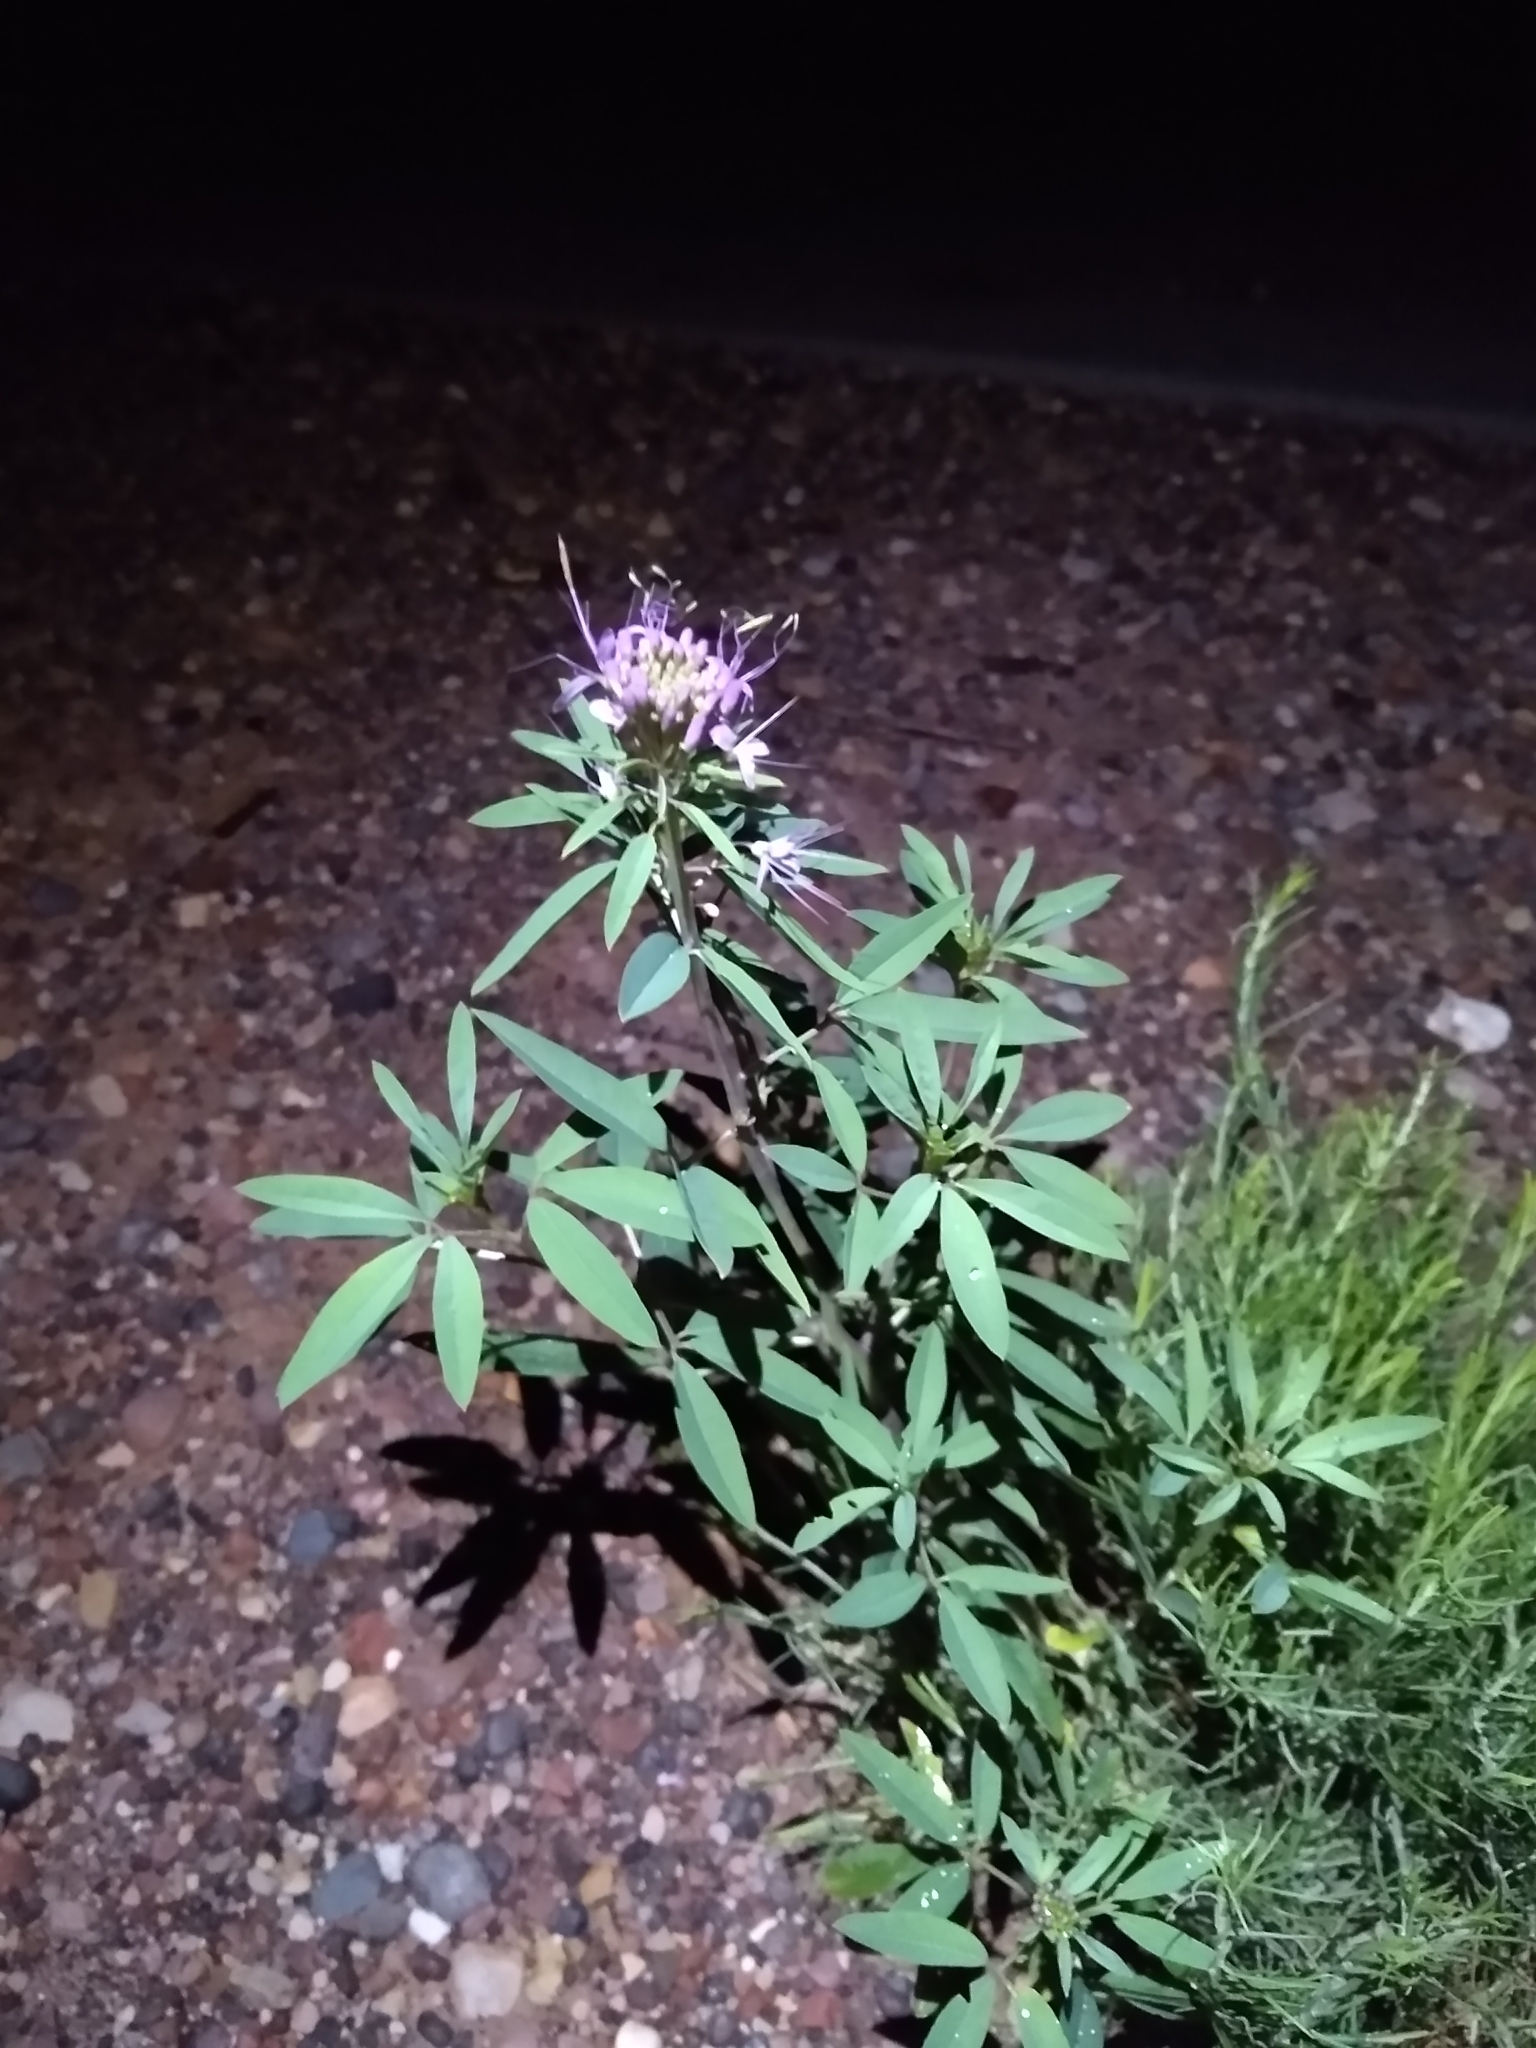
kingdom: Plantae
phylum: Tracheophyta
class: Magnoliopsida
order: Brassicales
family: Cleomaceae
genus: Cleomella
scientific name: Cleomella serrulata
